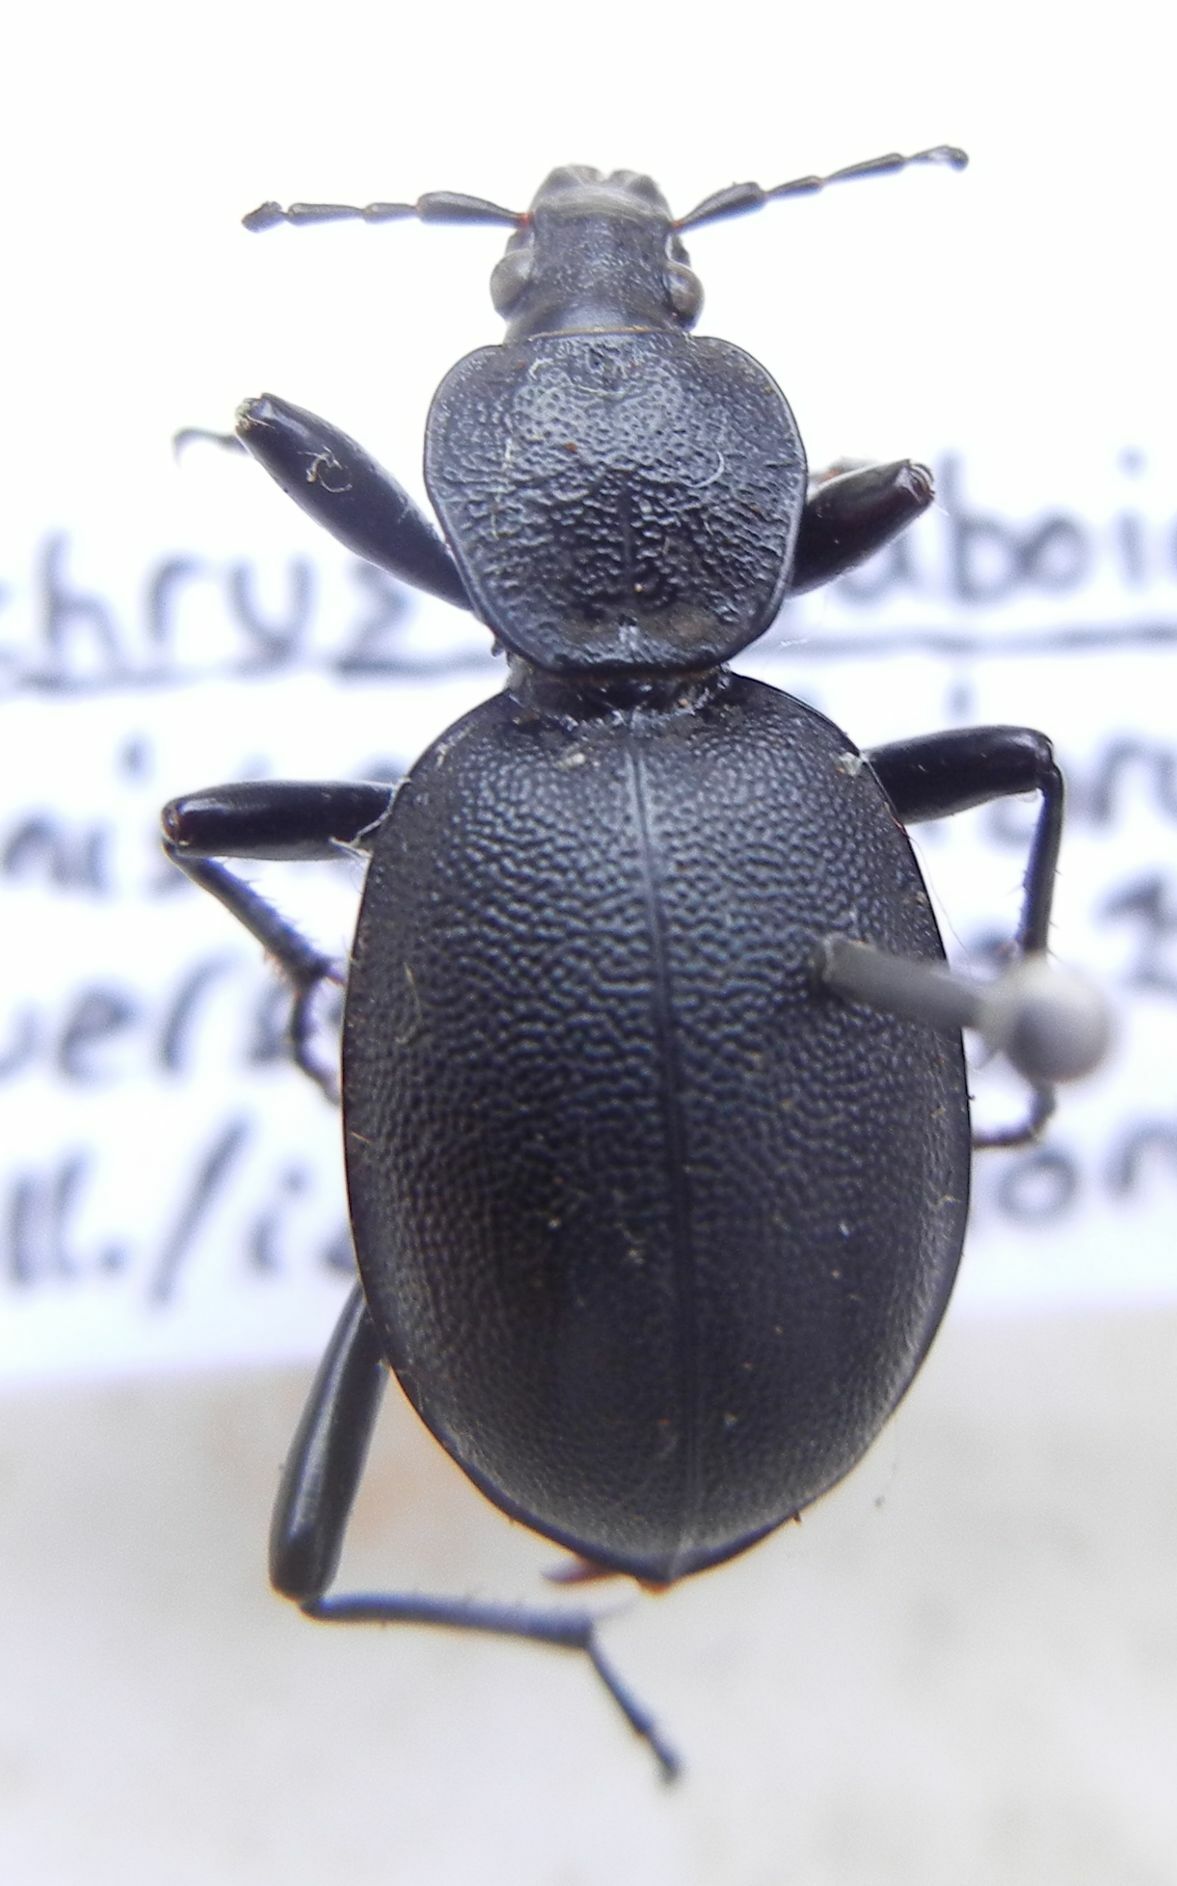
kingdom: Animalia
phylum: Arthropoda
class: Insecta
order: Coleoptera
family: Carabidae
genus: Cychrus
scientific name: Cychrus caraboides
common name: Snail hunter
